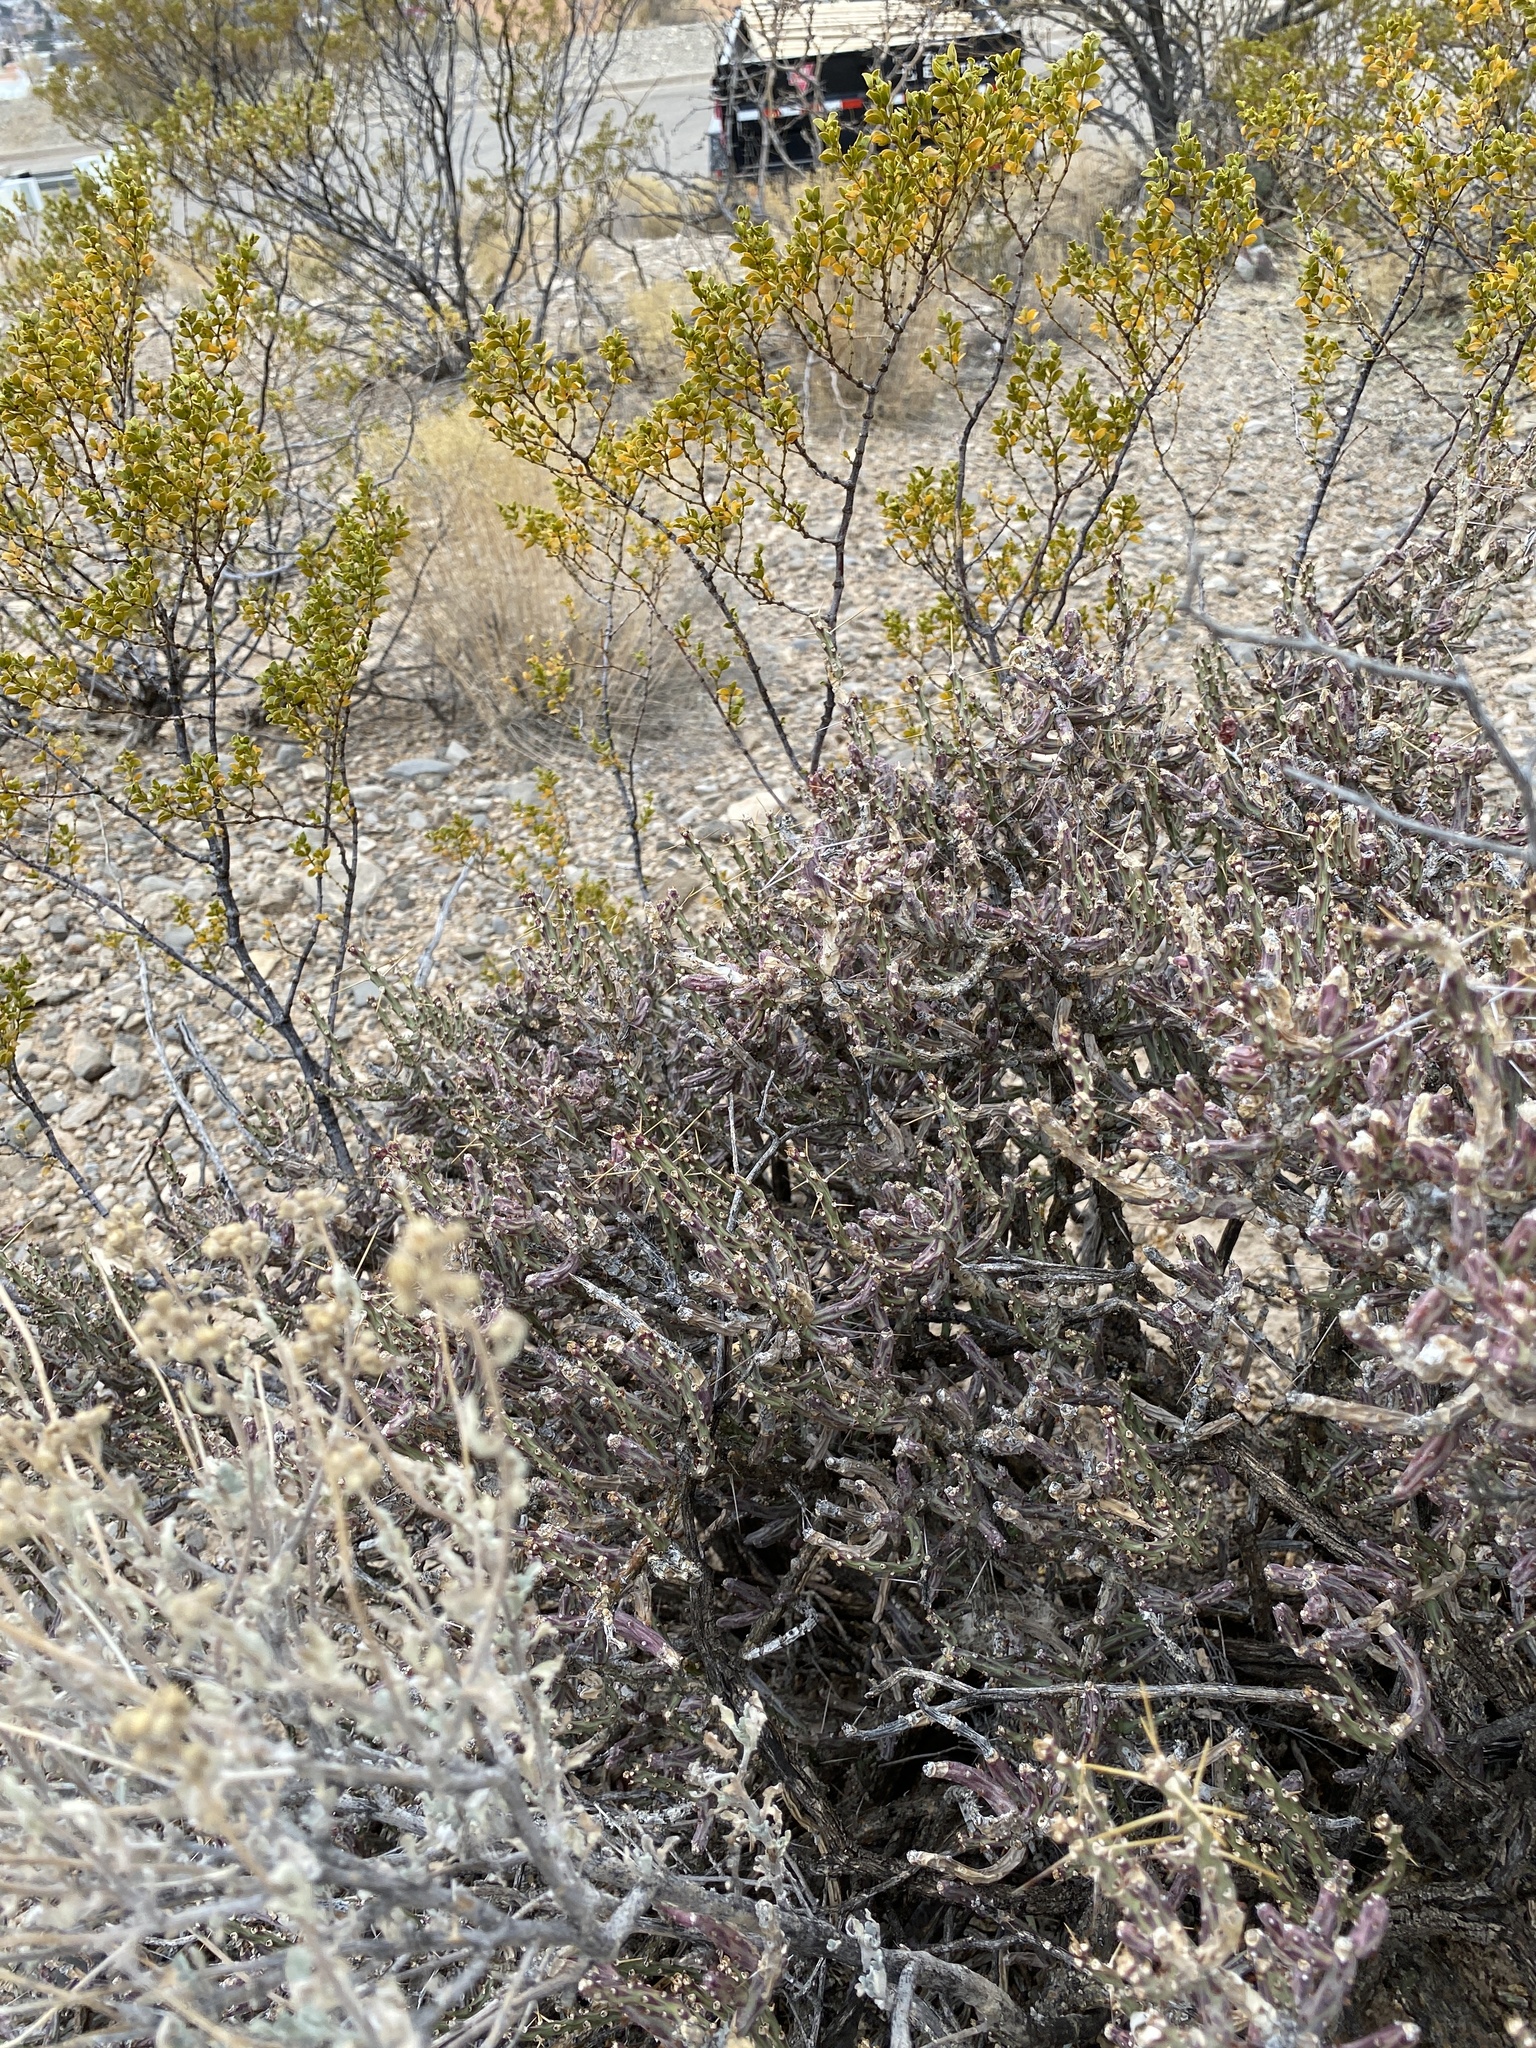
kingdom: Plantae
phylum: Tracheophyta
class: Magnoliopsida
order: Caryophyllales
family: Cactaceae
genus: Cylindropuntia
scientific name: Cylindropuntia leptocaulis
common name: Christmas cactus
